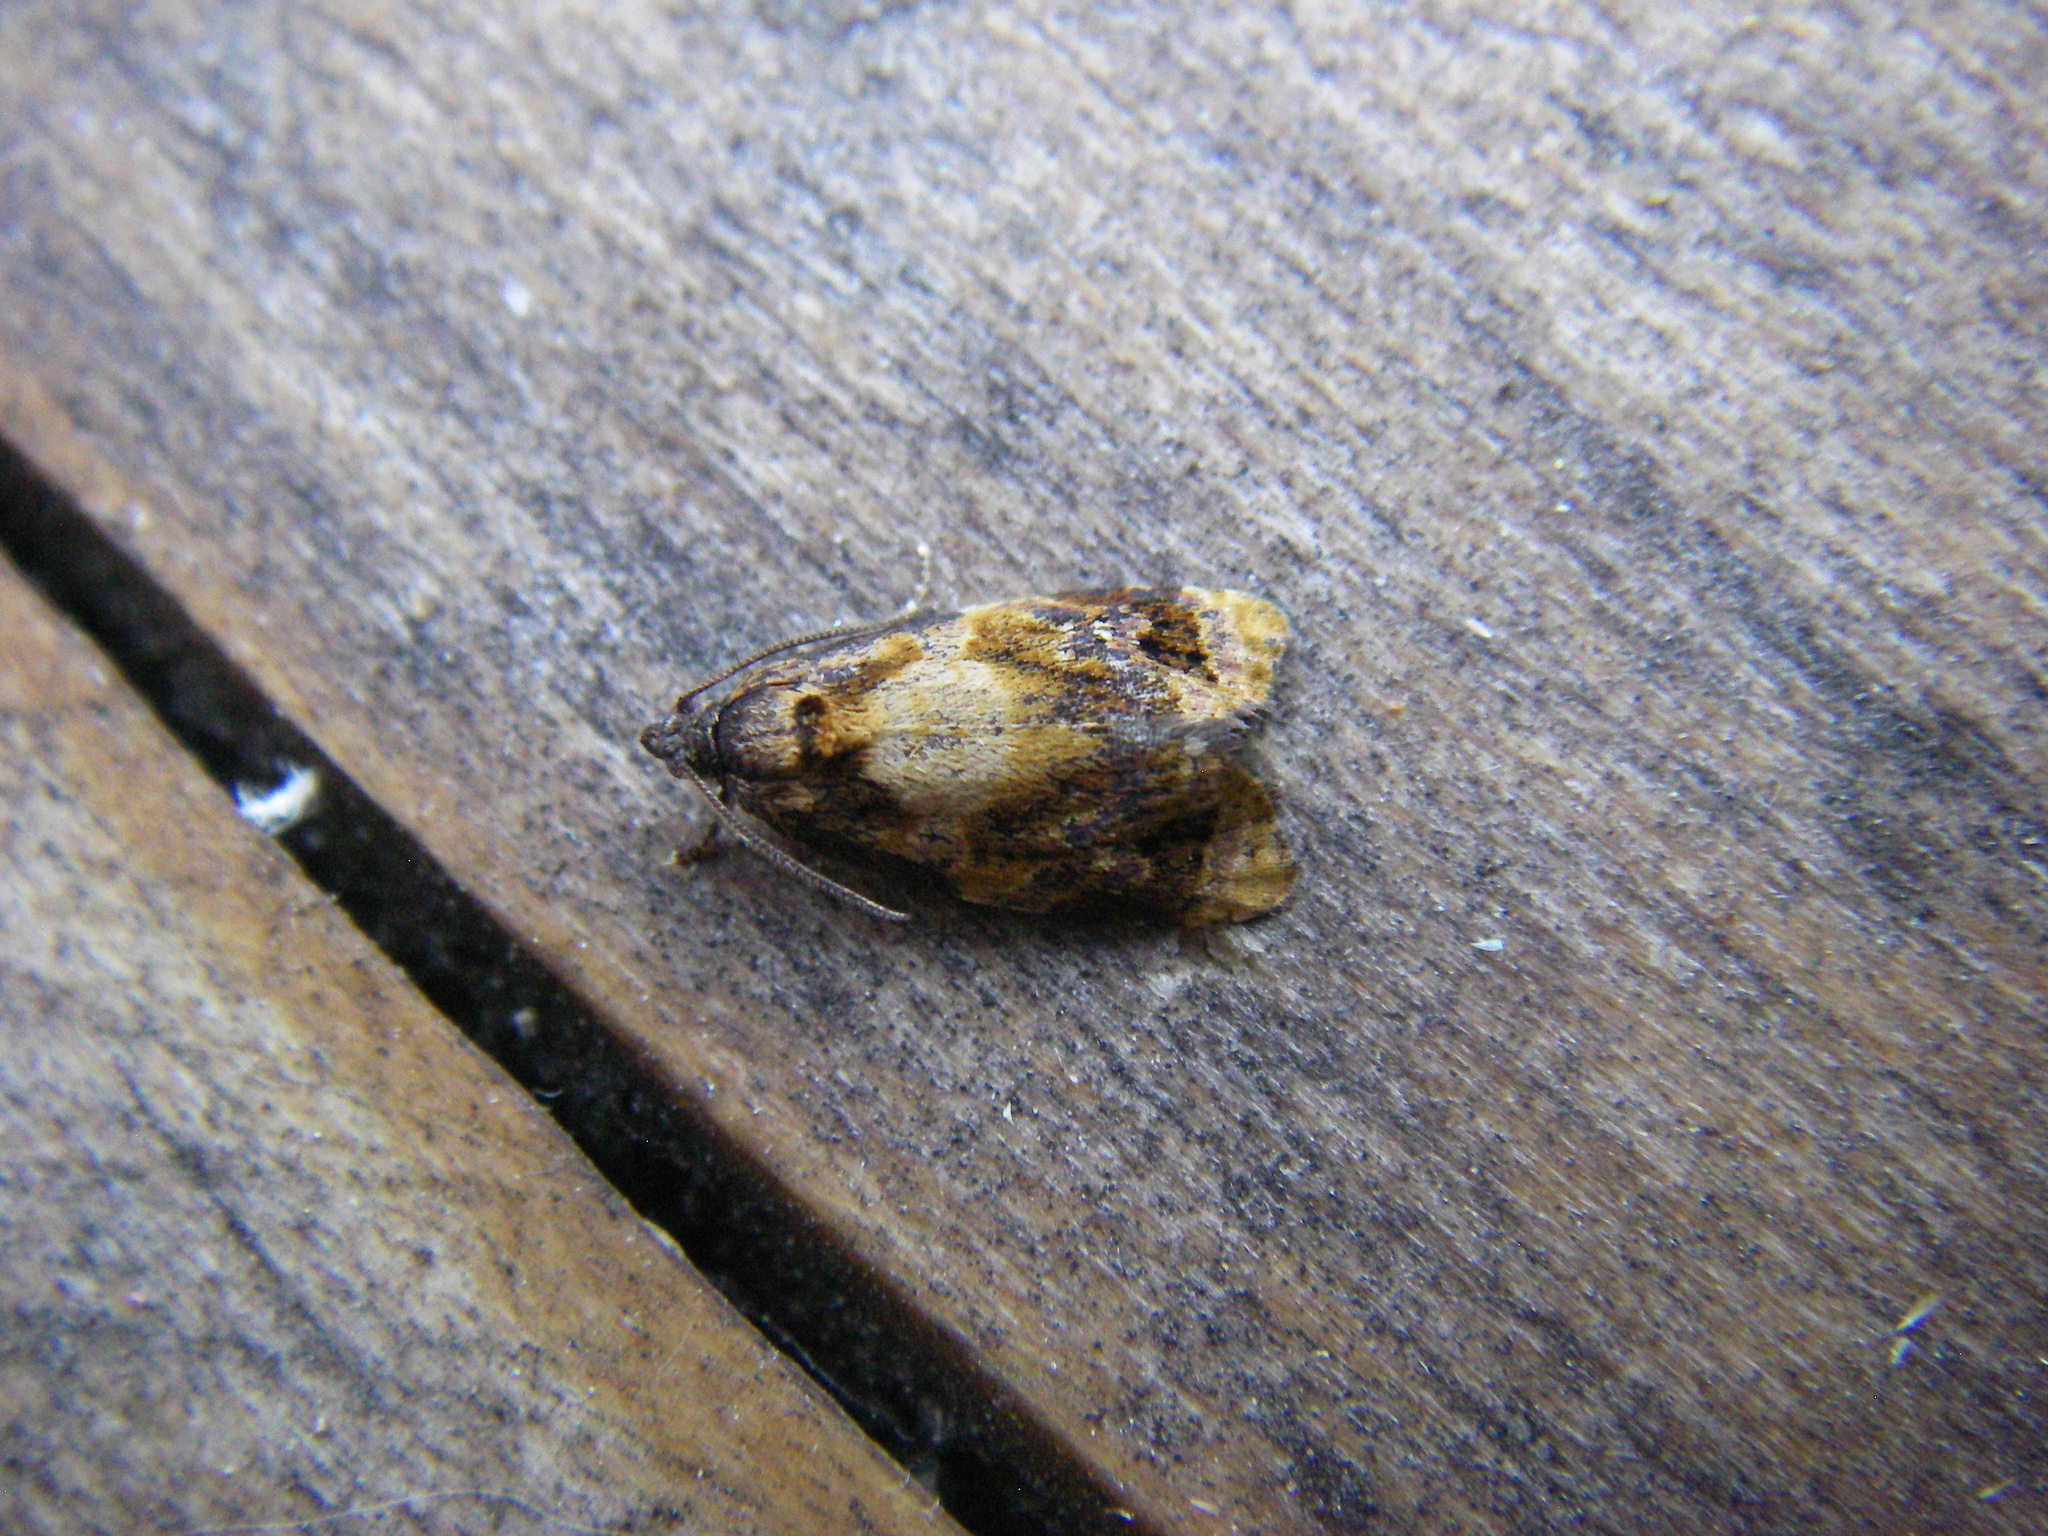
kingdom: Animalia
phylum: Arthropoda
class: Insecta
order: Lepidoptera
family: Tortricidae
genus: Ditula
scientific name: Ditula angustiorana
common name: Red-barred tortrix
